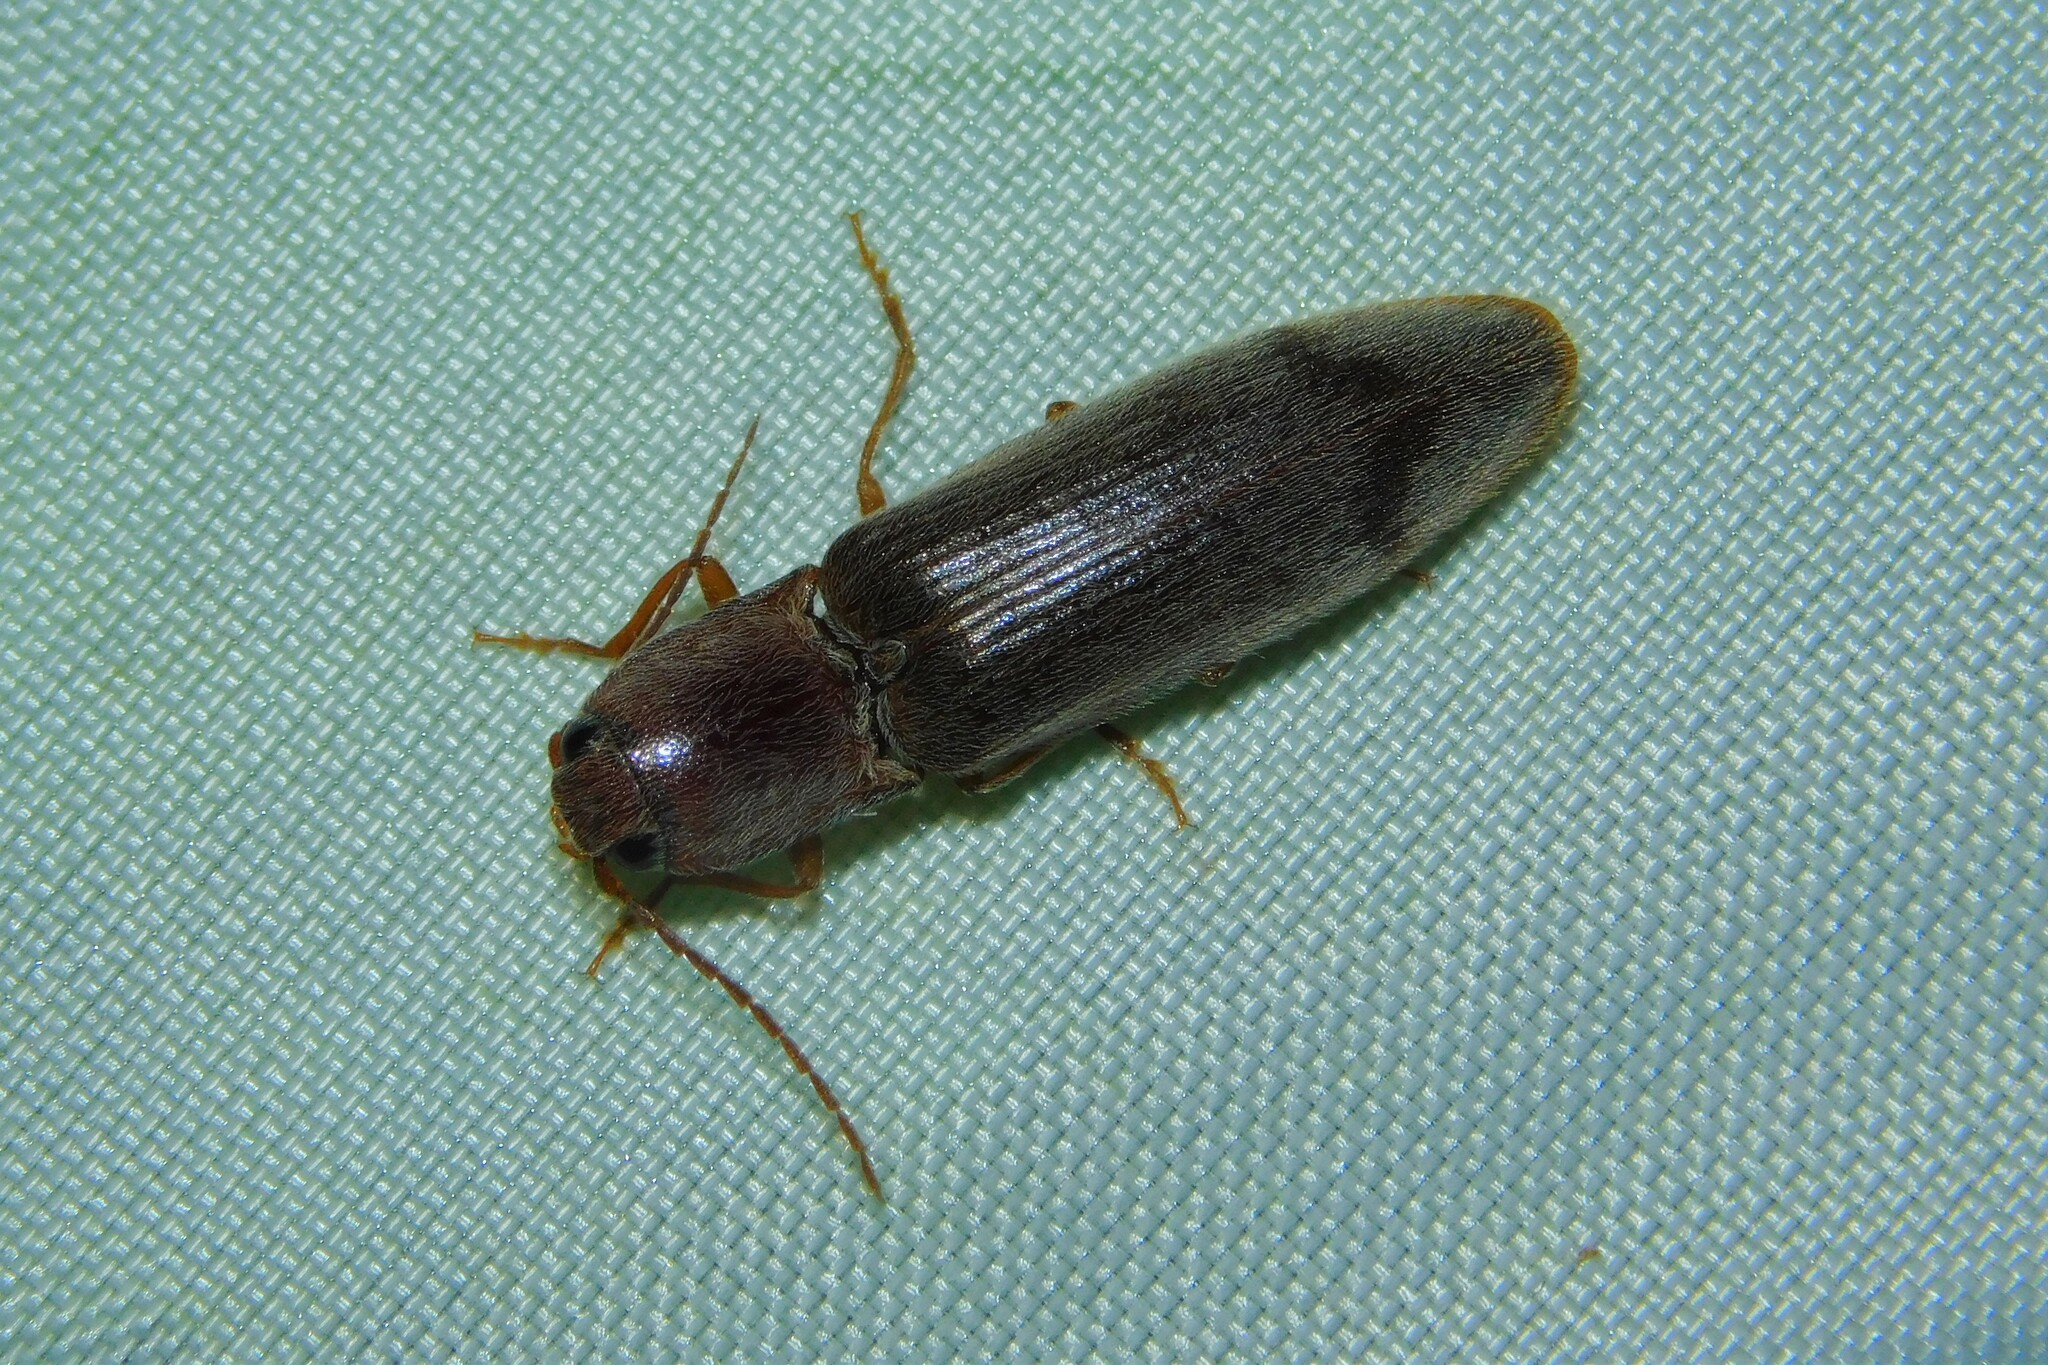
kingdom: Animalia
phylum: Arthropoda
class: Insecta
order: Coleoptera
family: Elateridae
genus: Stenagostus
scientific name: Stenagostus rhombeus
